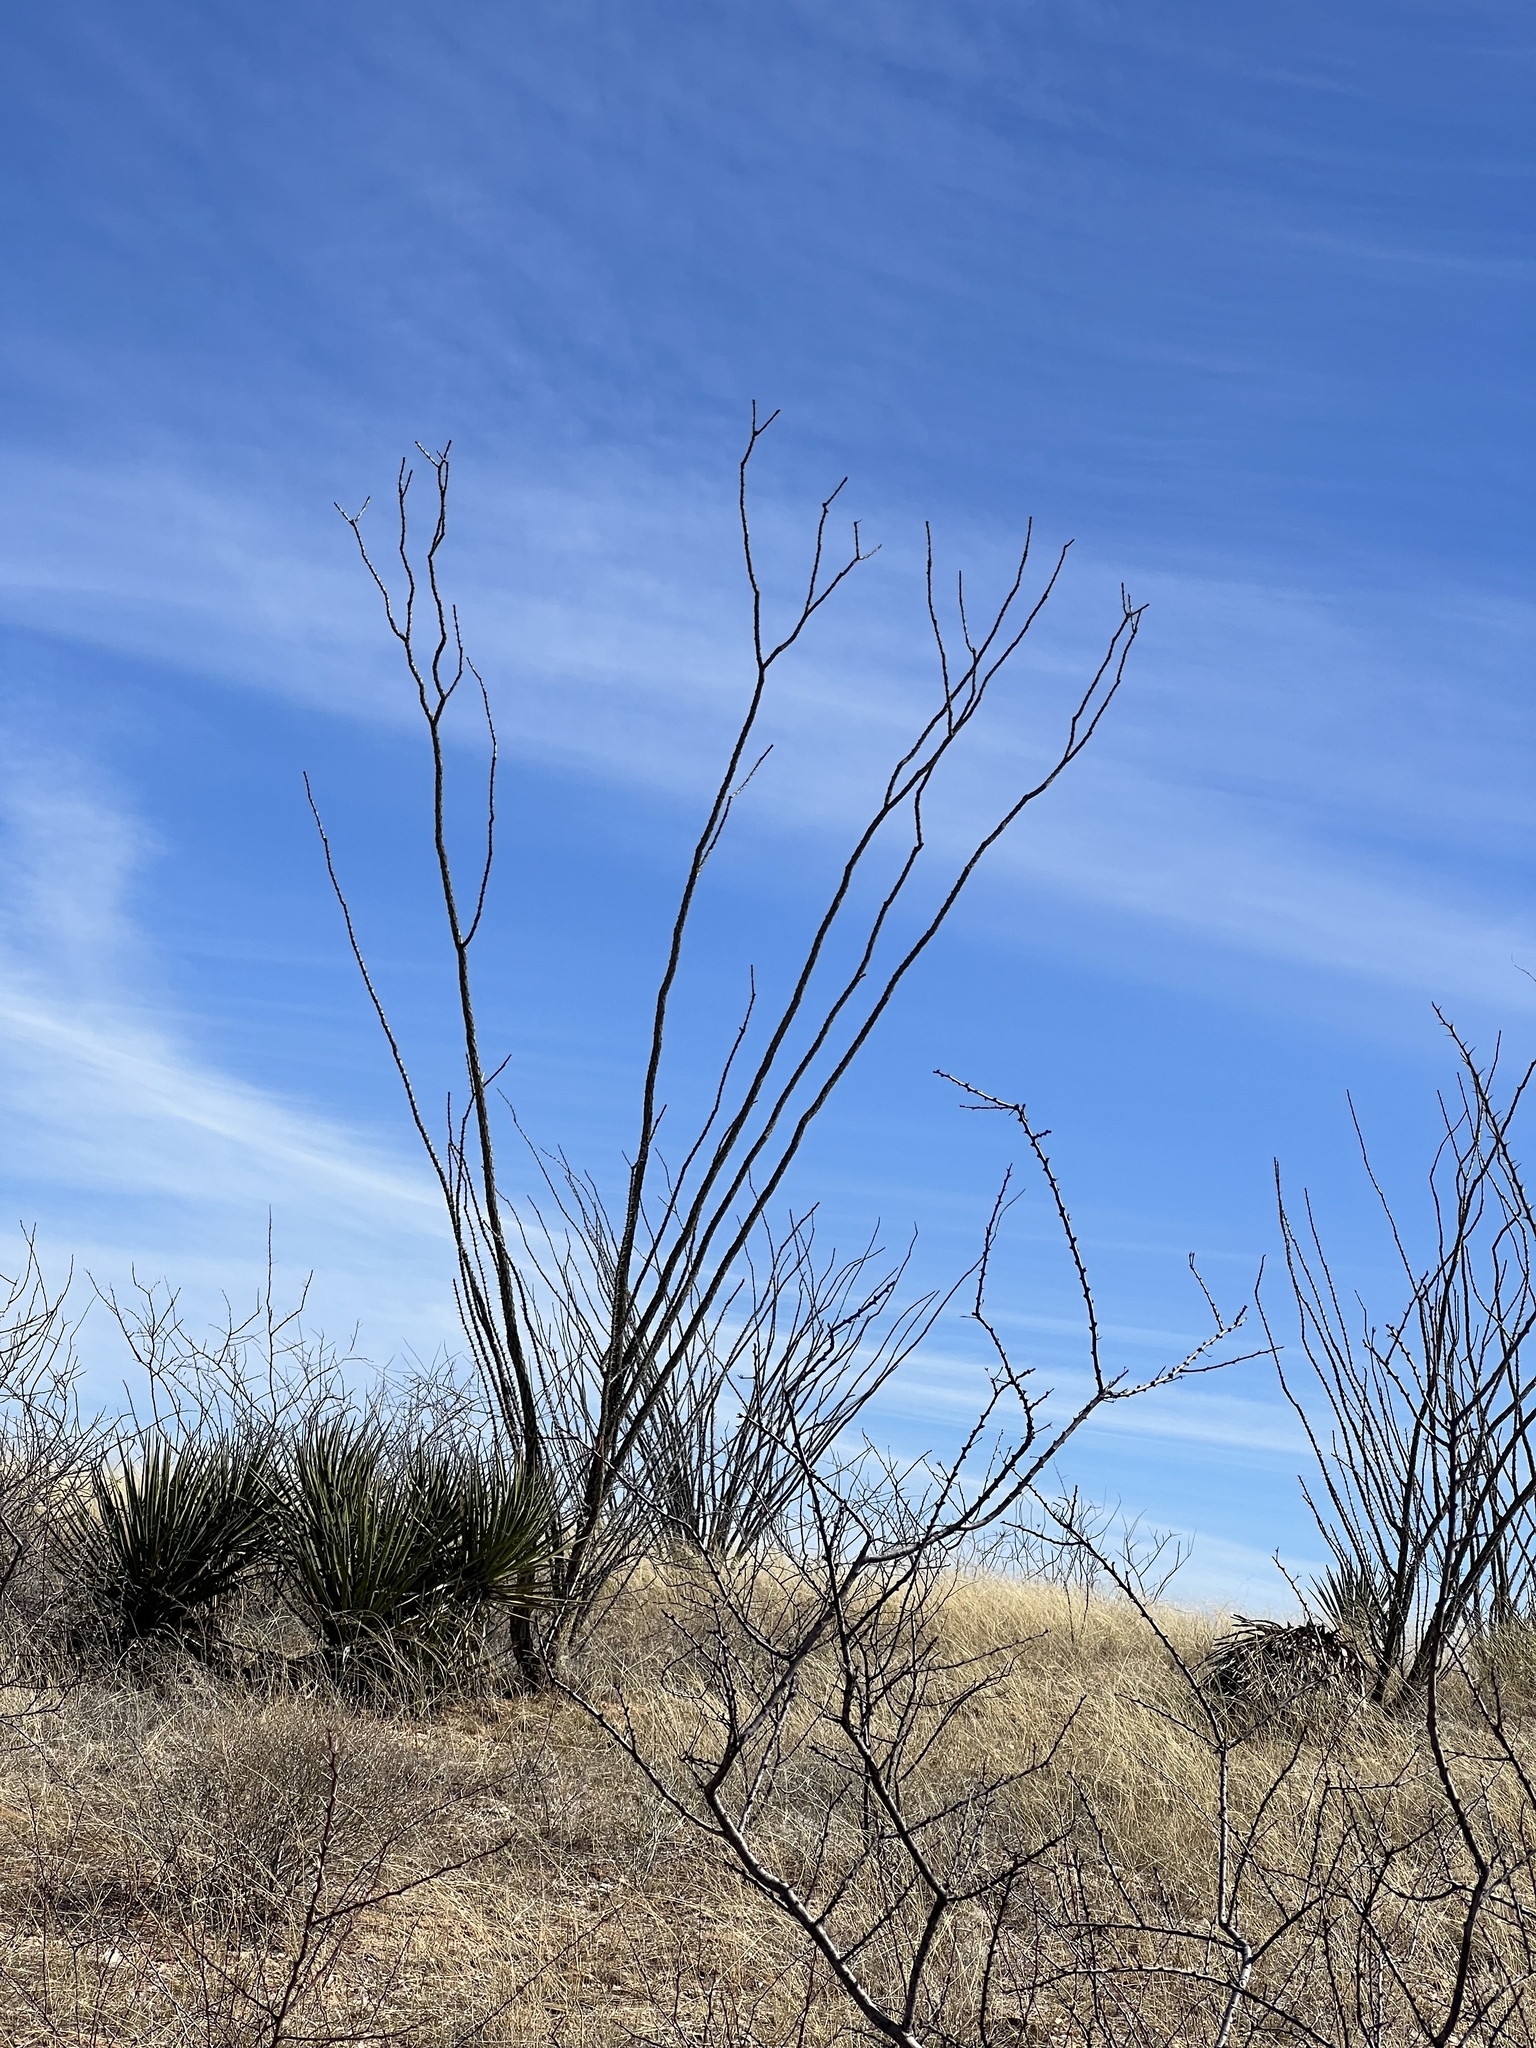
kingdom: Plantae
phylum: Tracheophyta
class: Magnoliopsida
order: Ericales
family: Fouquieriaceae
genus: Fouquieria
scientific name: Fouquieria splendens
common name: Vine-cactus
